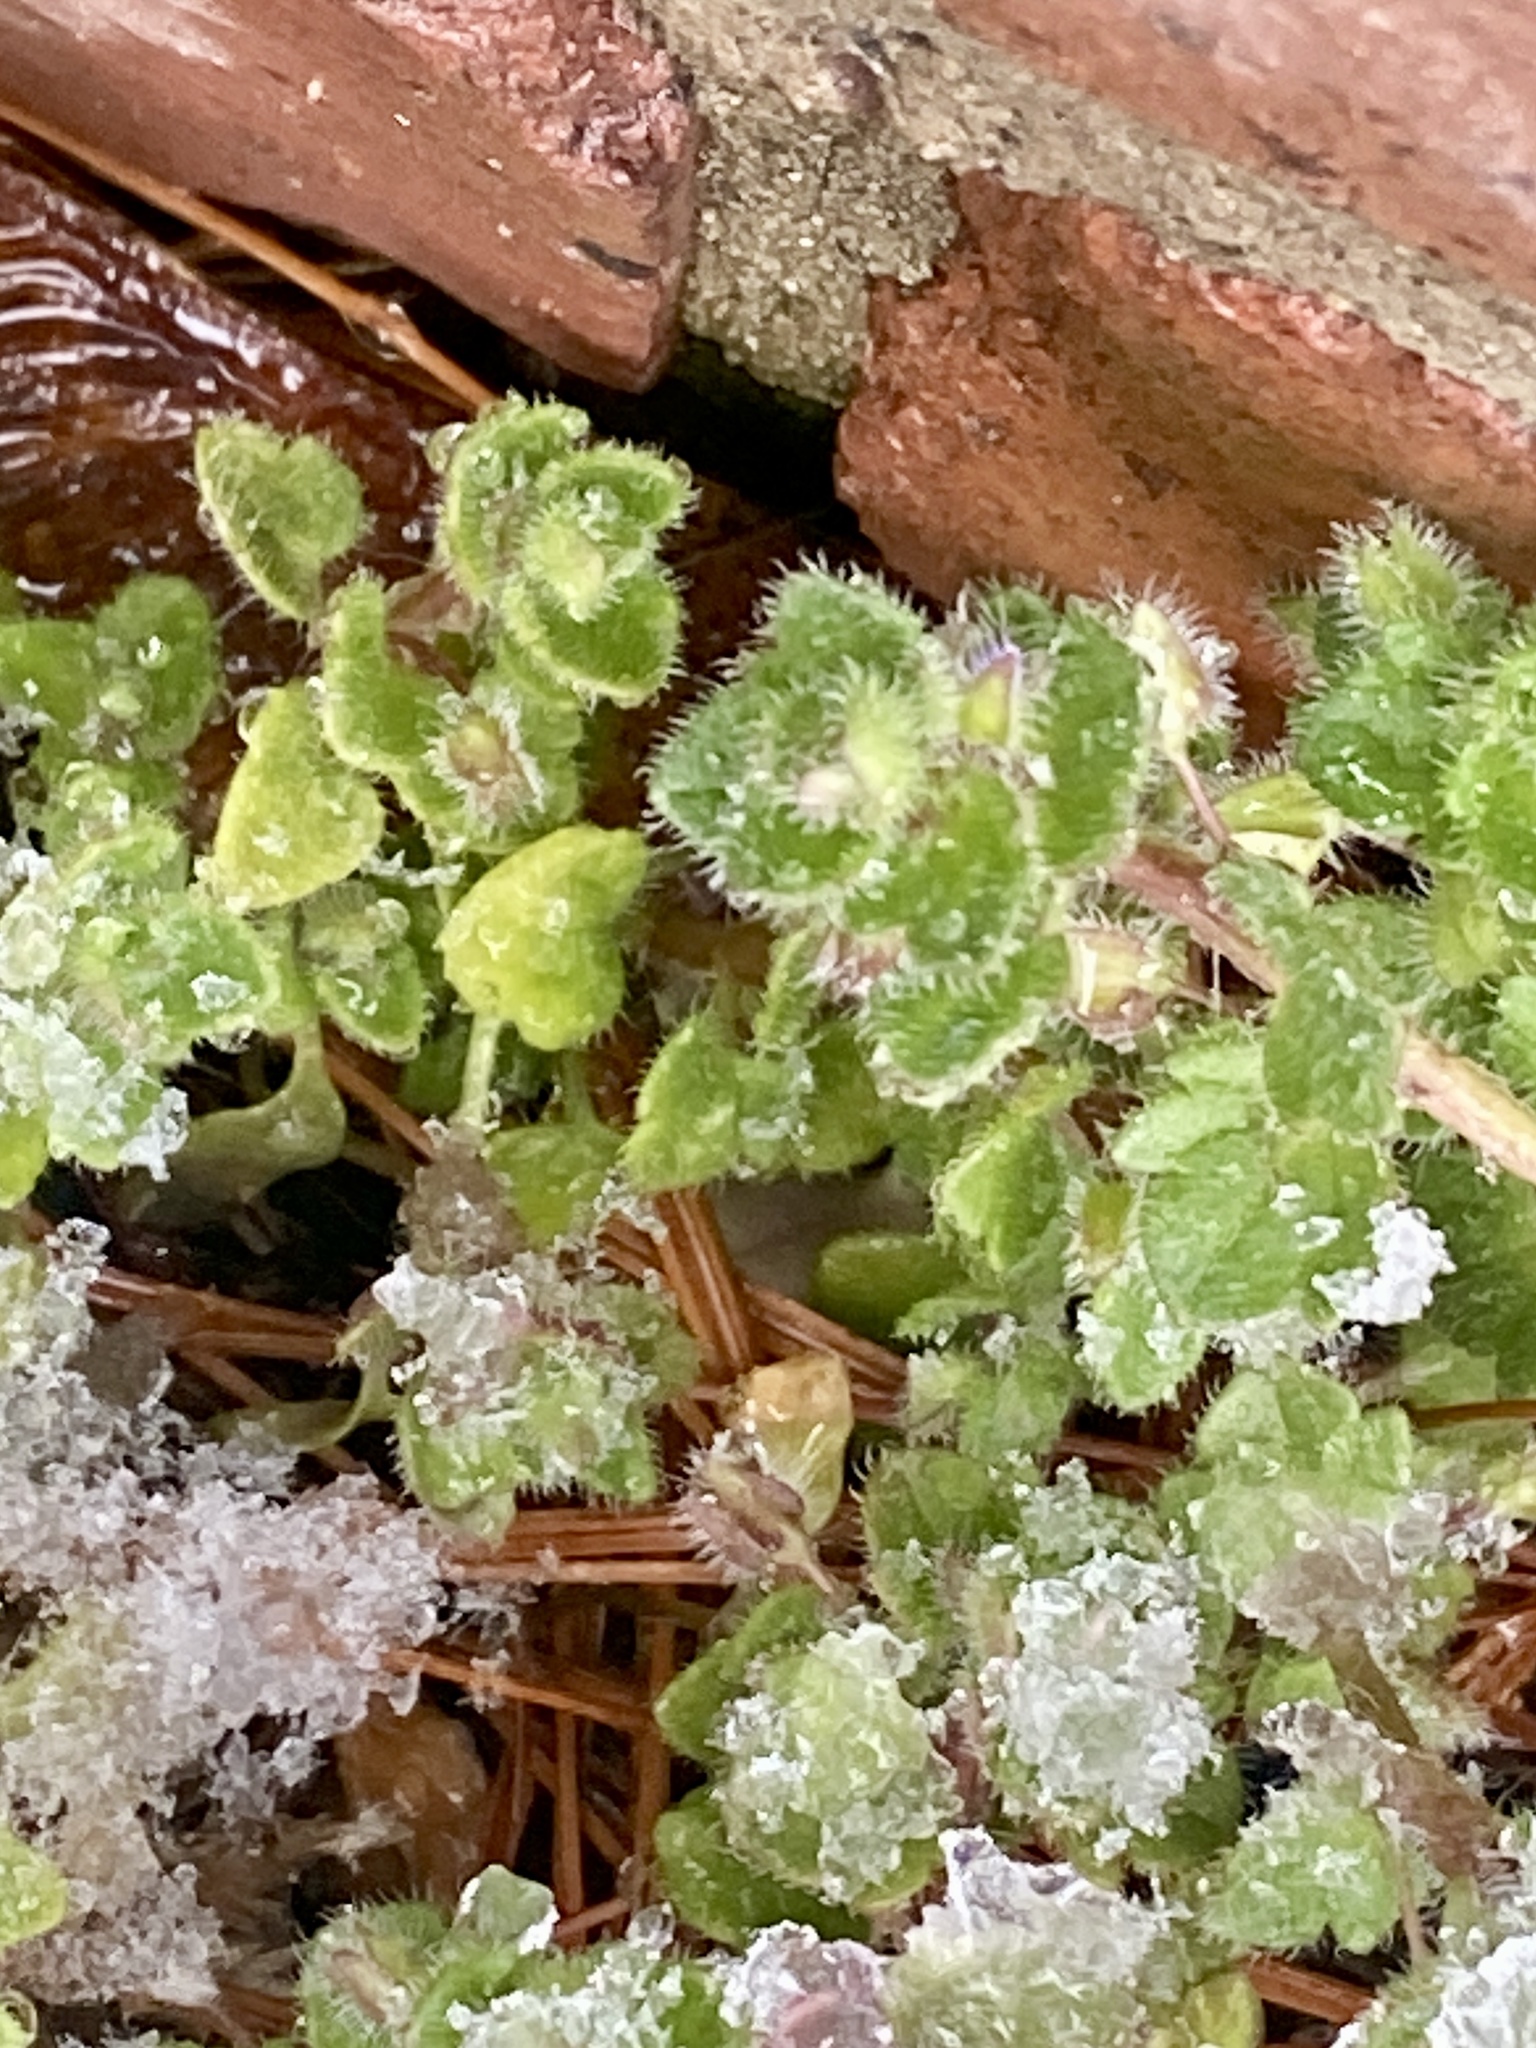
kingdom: Plantae
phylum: Tracheophyta
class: Magnoliopsida
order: Lamiales
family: Plantaginaceae
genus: Veronica
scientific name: Veronica hederifolia
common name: Ivy-leaved speedwell
